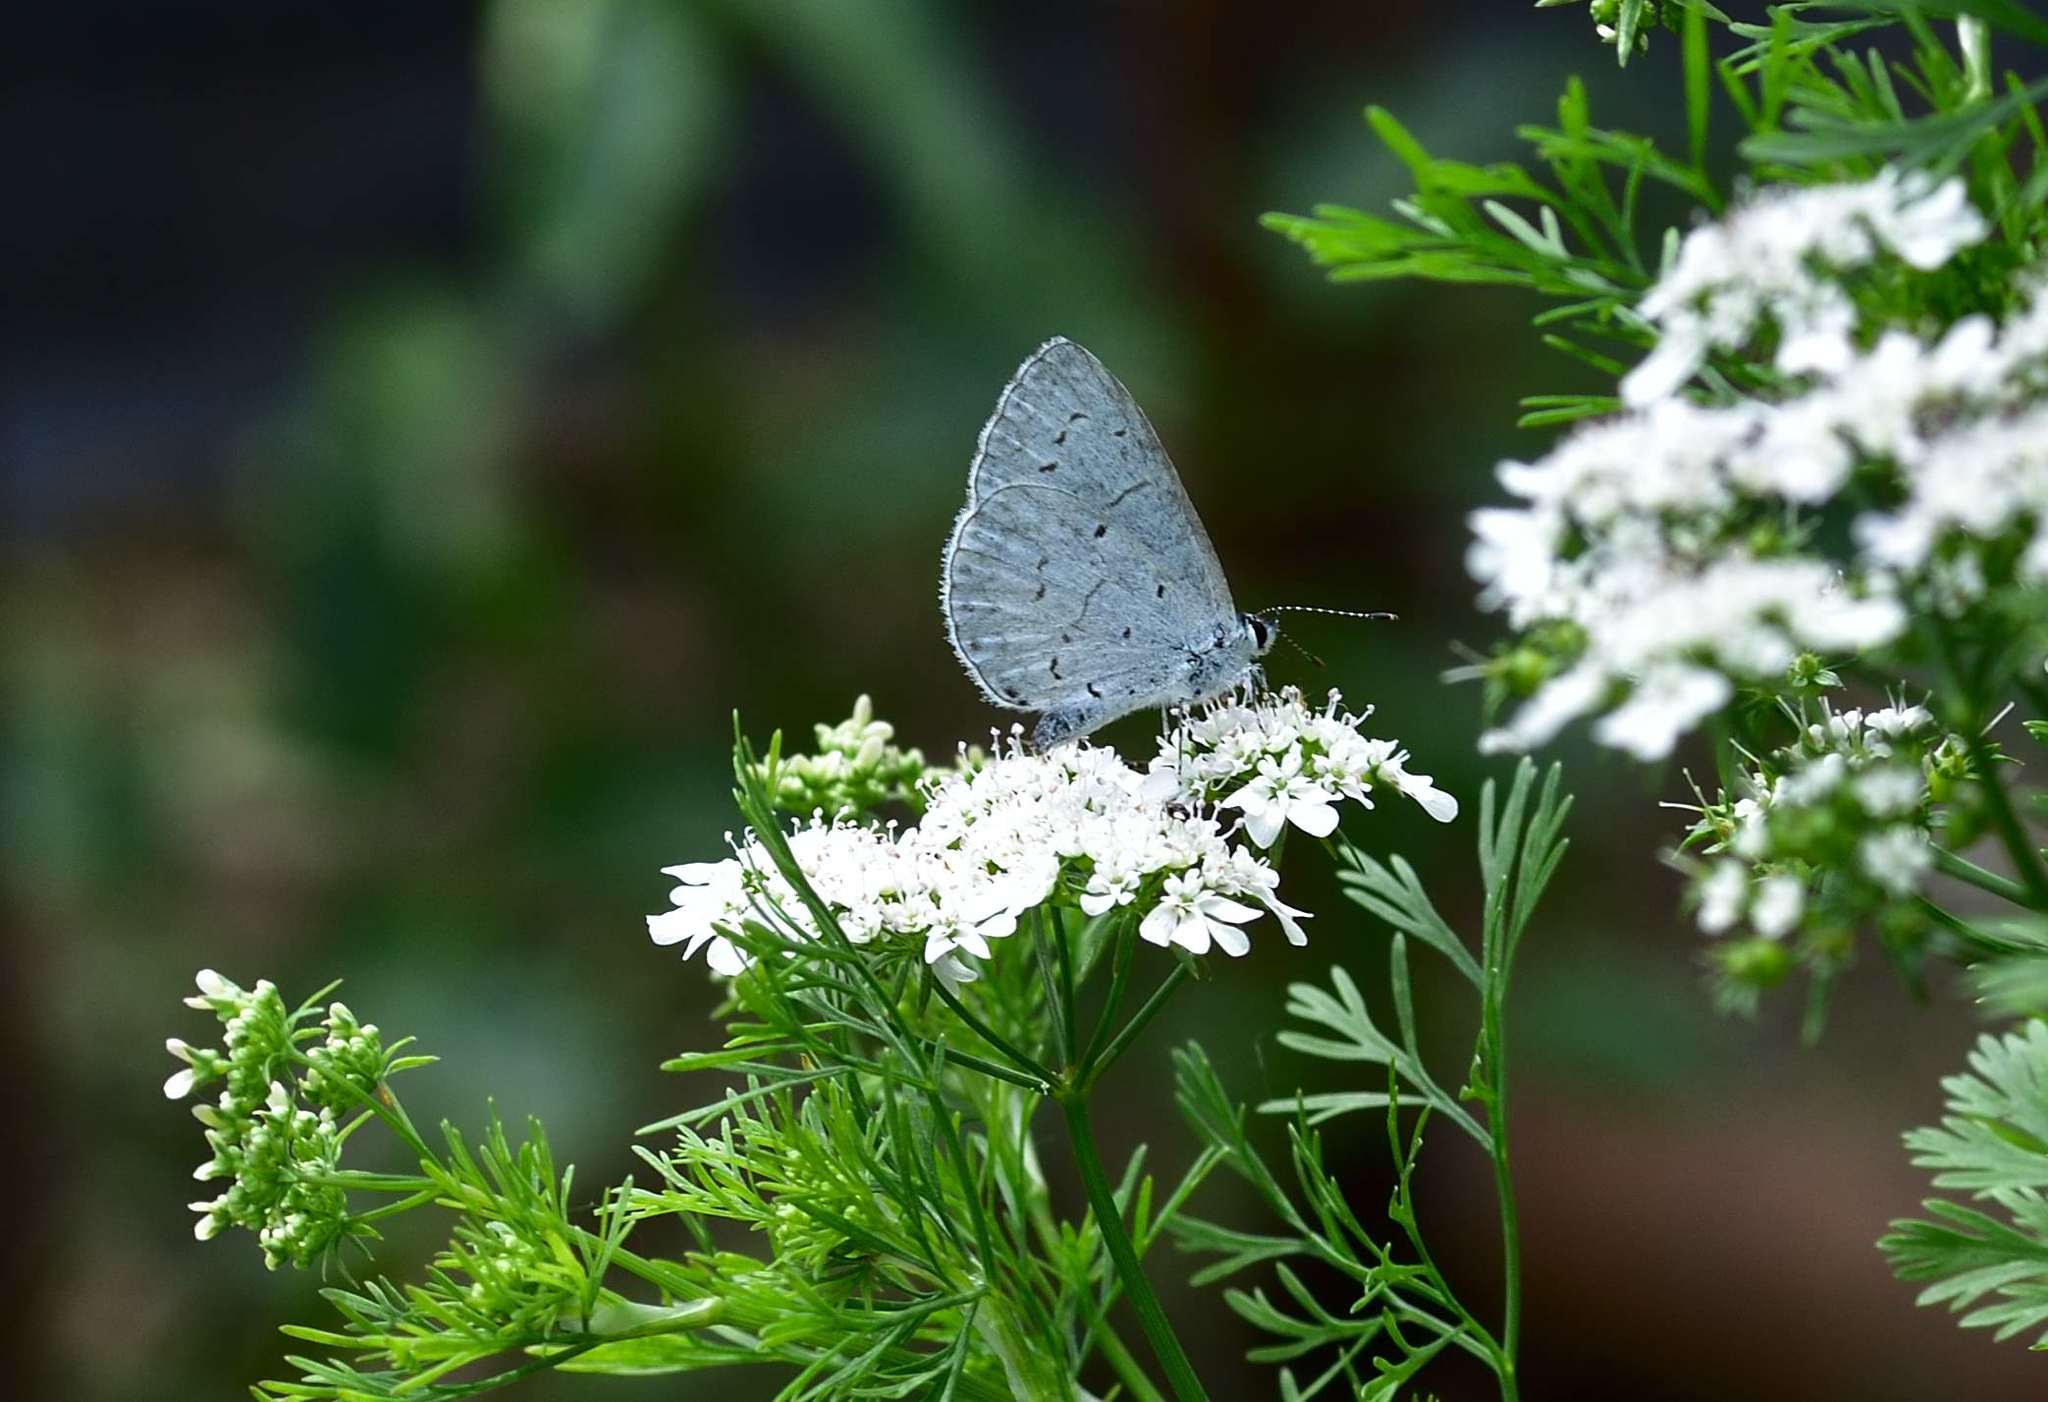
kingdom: Animalia
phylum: Arthropoda
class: Insecta
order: Lepidoptera
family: Lycaenidae
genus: Cyaniris
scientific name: Cyaniris neglecta
